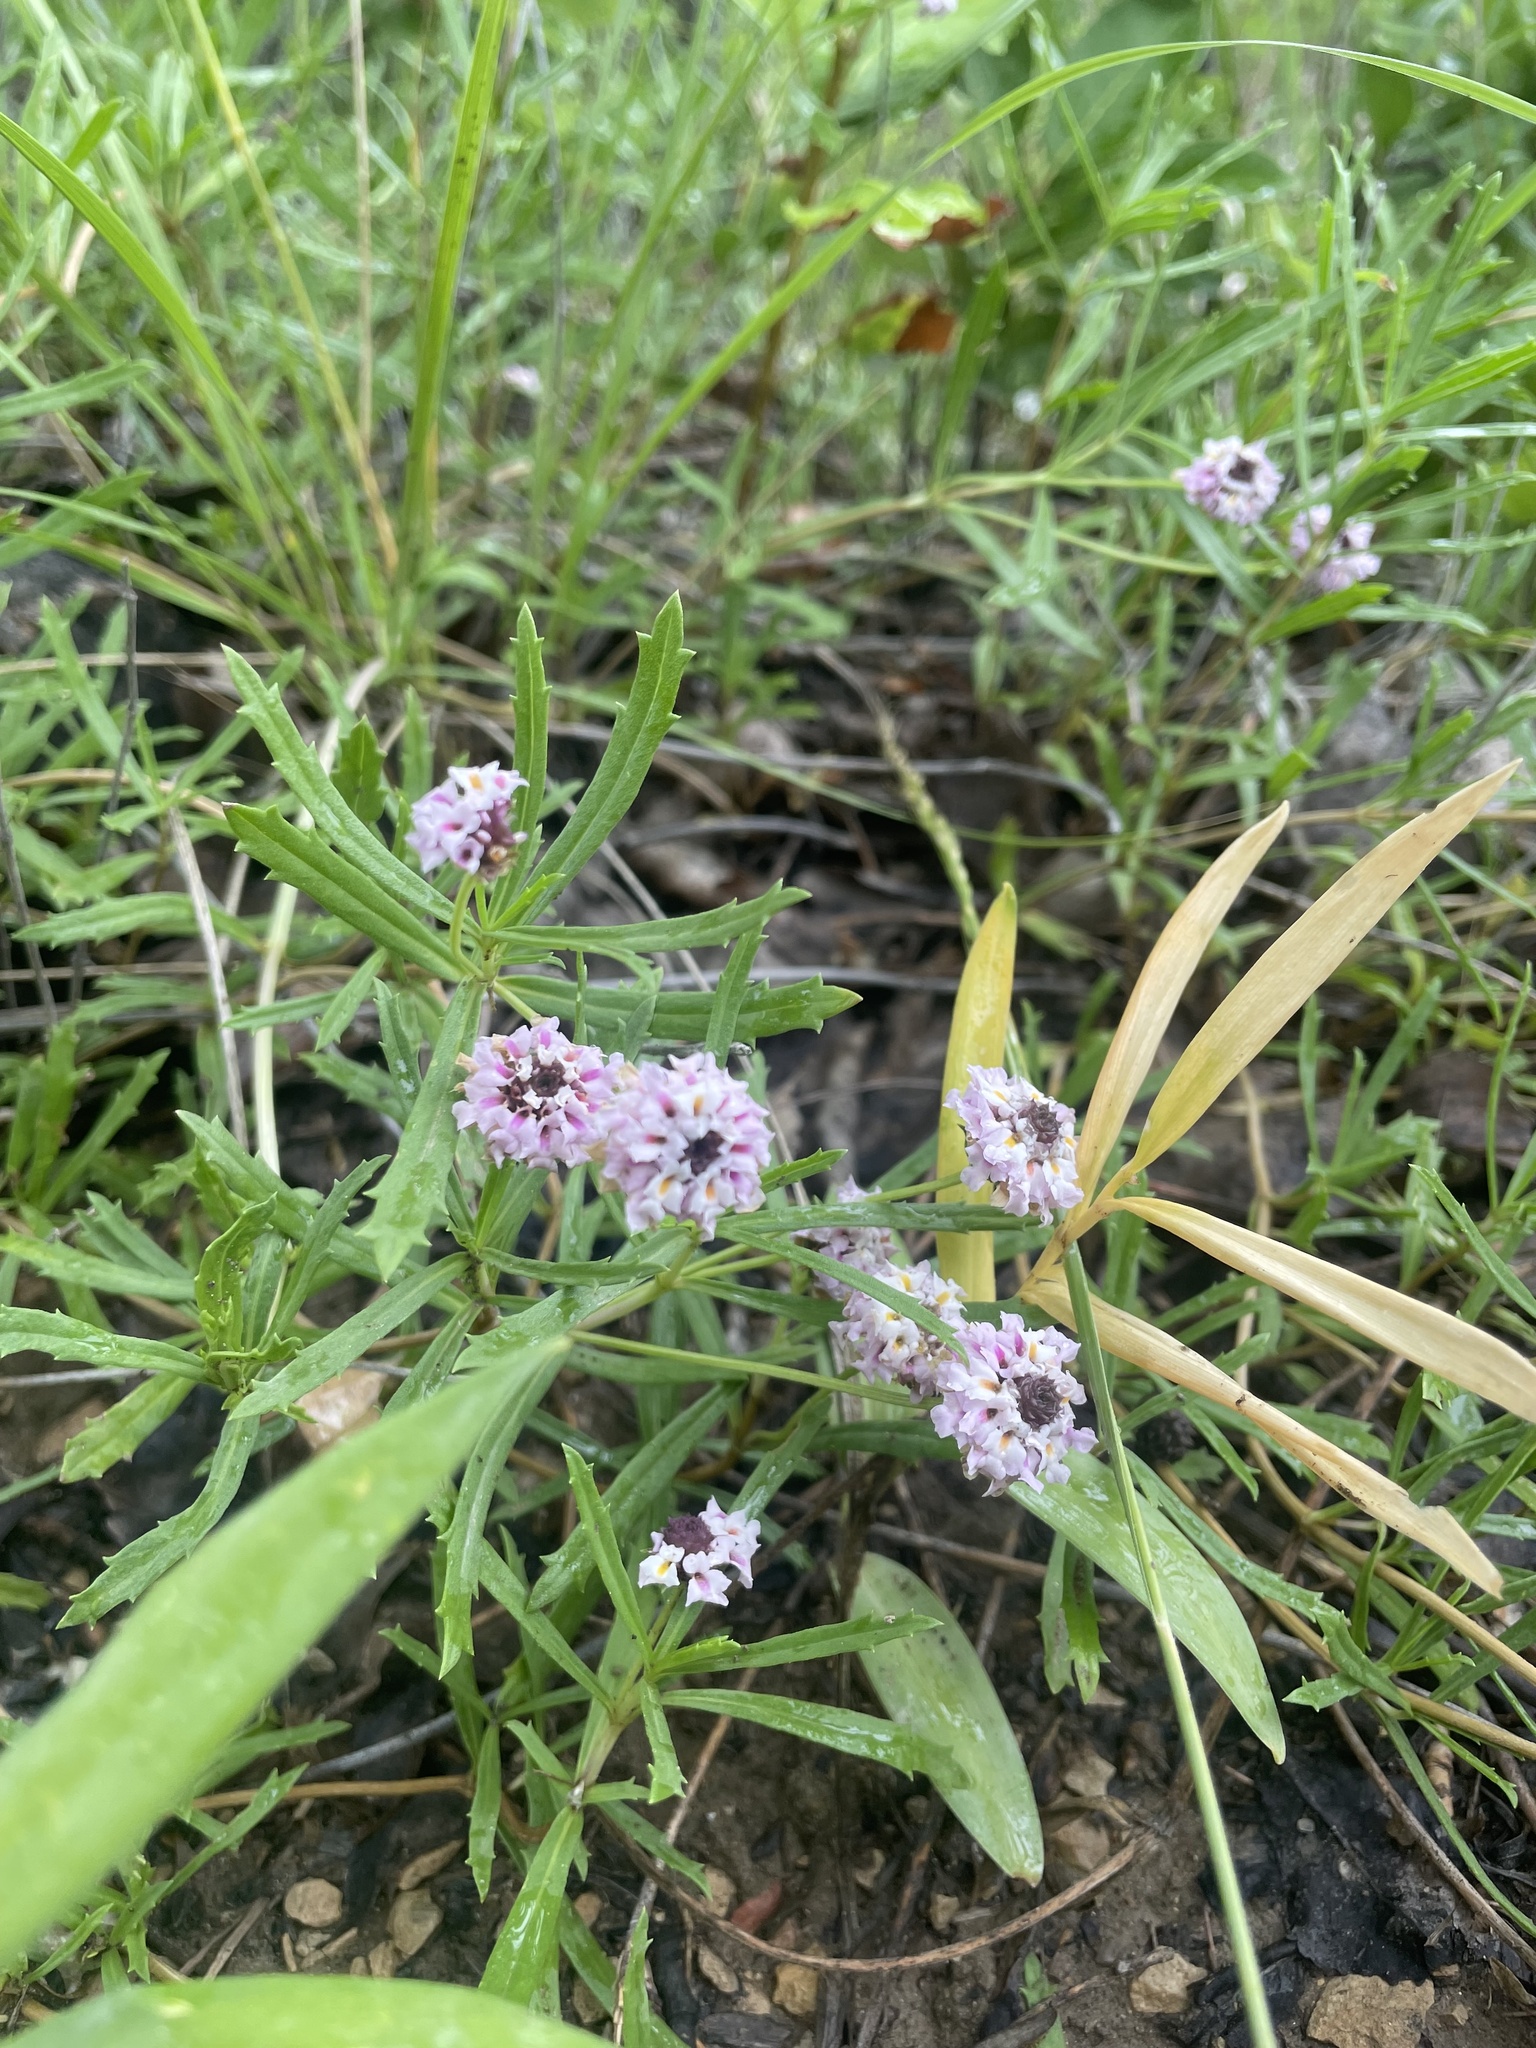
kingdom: Plantae
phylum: Tracheophyta
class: Magnoliopsida
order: Lamiales
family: Verbenaceae
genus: Phyla
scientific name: Phyla cuneifolia
